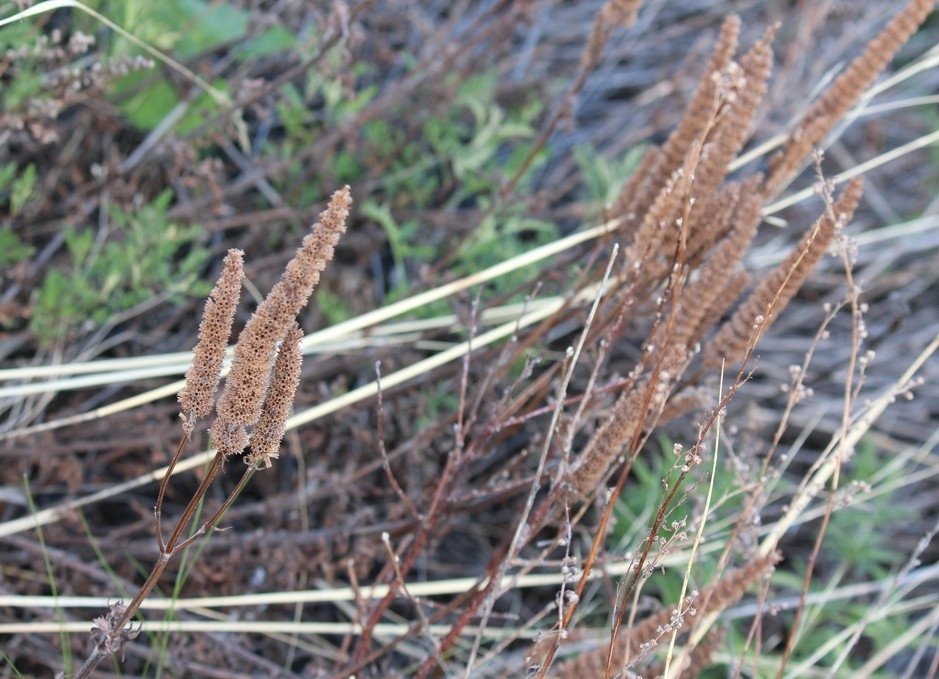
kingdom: Plantae
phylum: Tracheophyta
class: Magnoliopsida
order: Lamiales
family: Lamiaceae
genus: Nepeta
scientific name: Nepeta multifida
